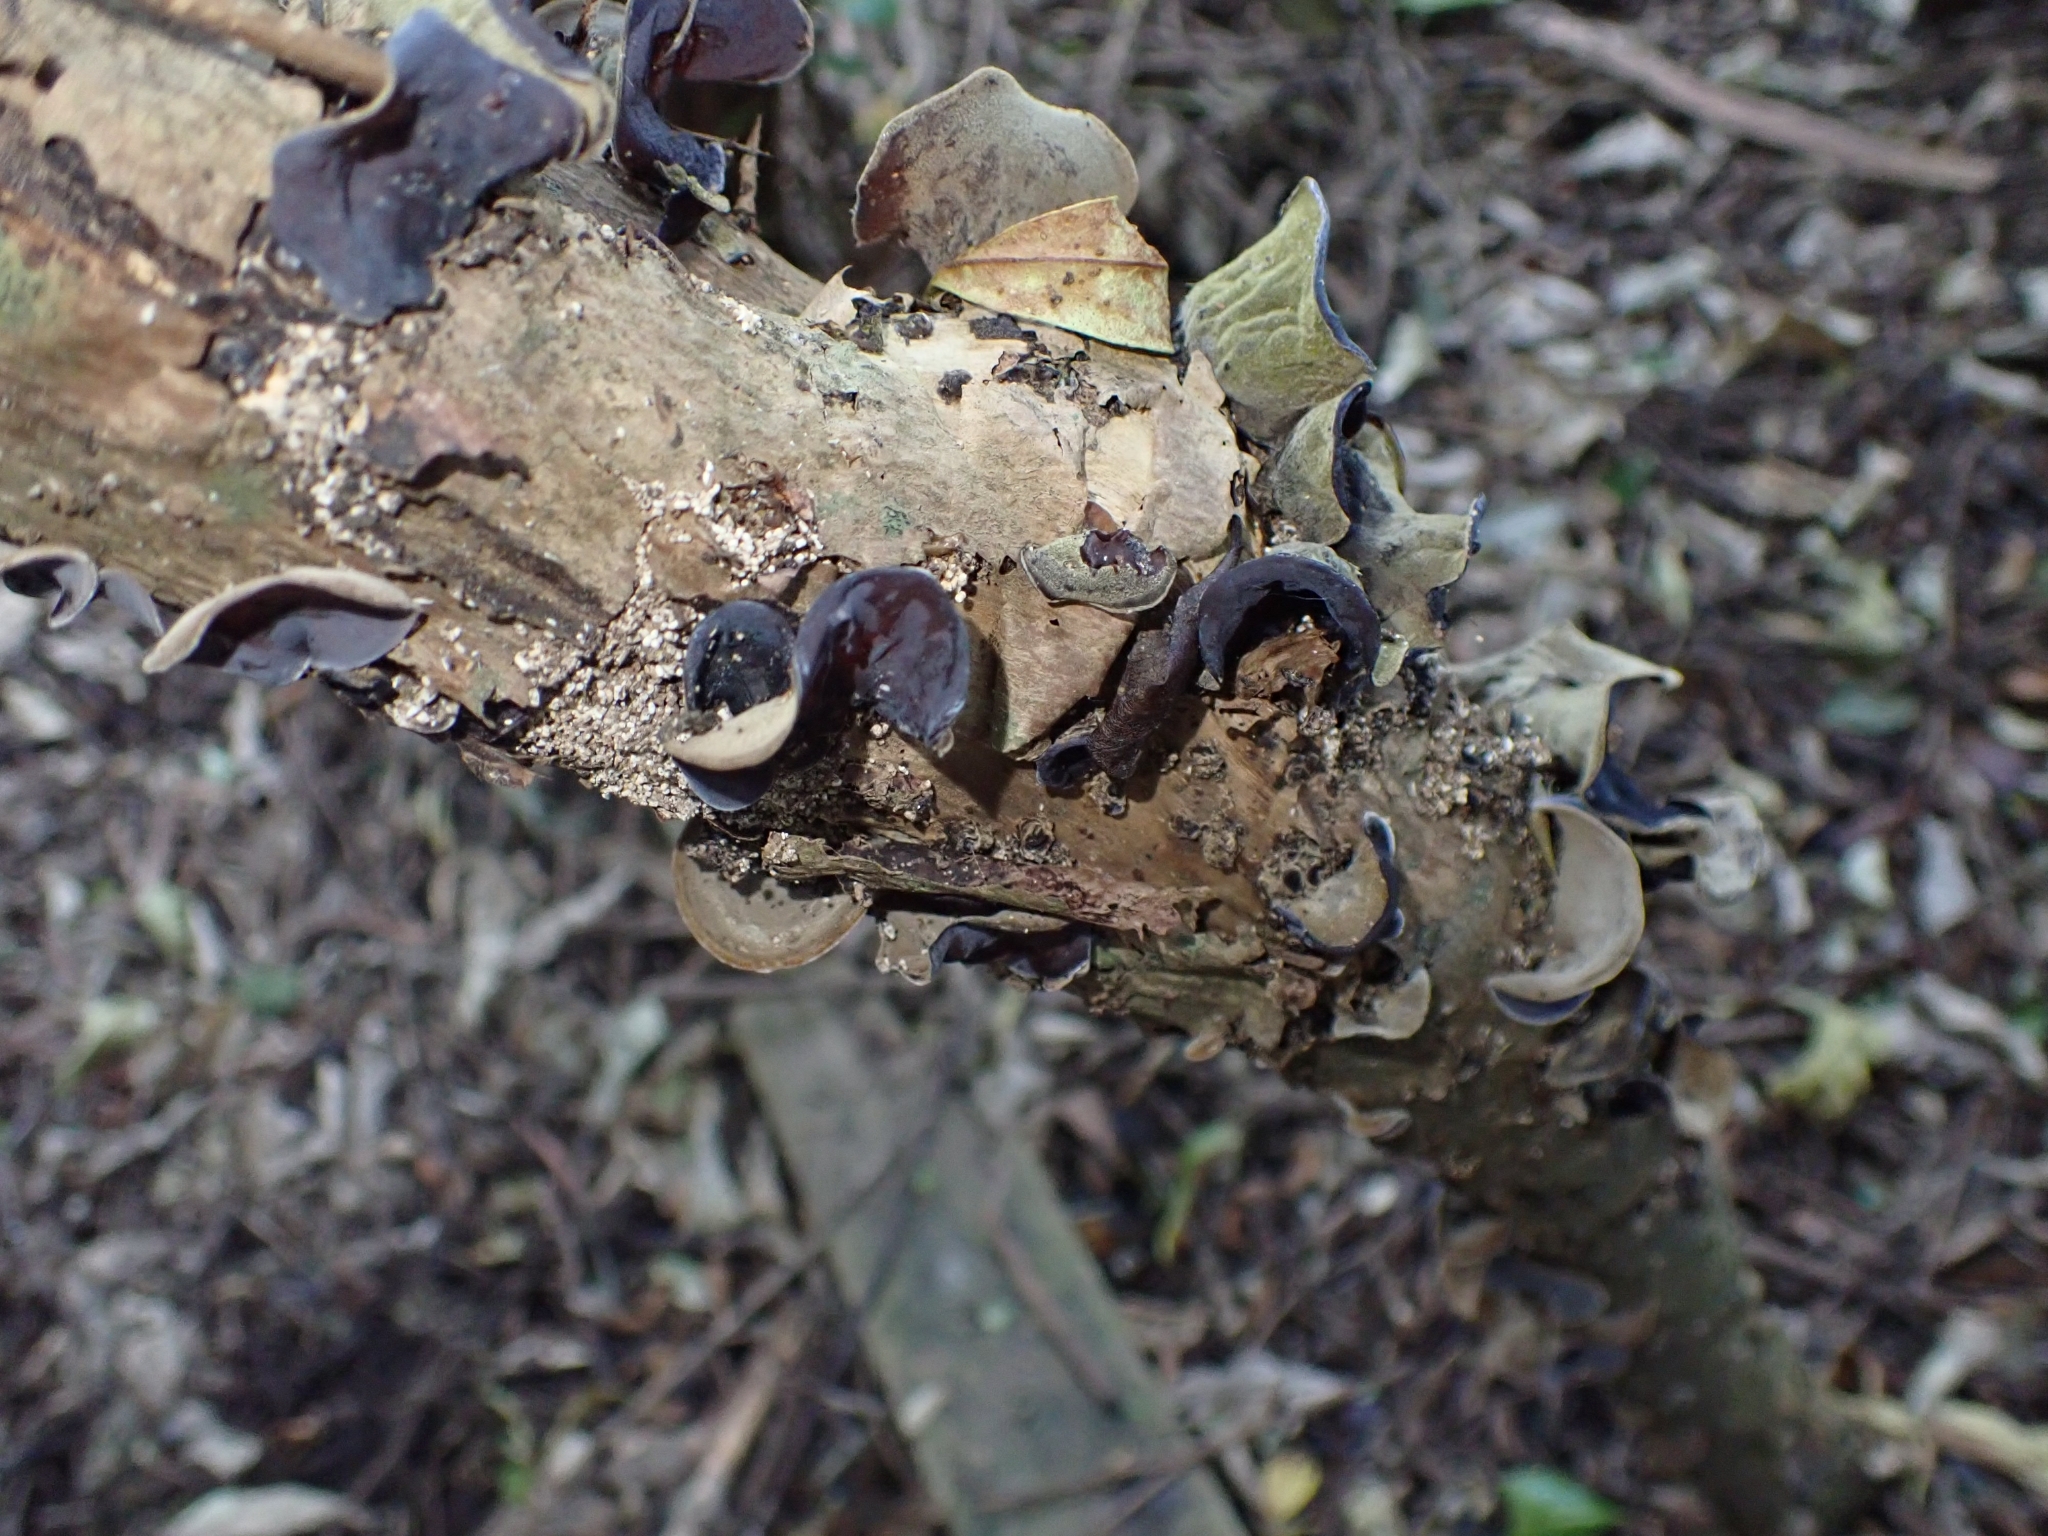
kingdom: Fungi
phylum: Basidiomycota
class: Agaricomycetes
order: Auriculariales
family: Auriculariaceae
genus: Auricularia
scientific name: Auricularia cornea
